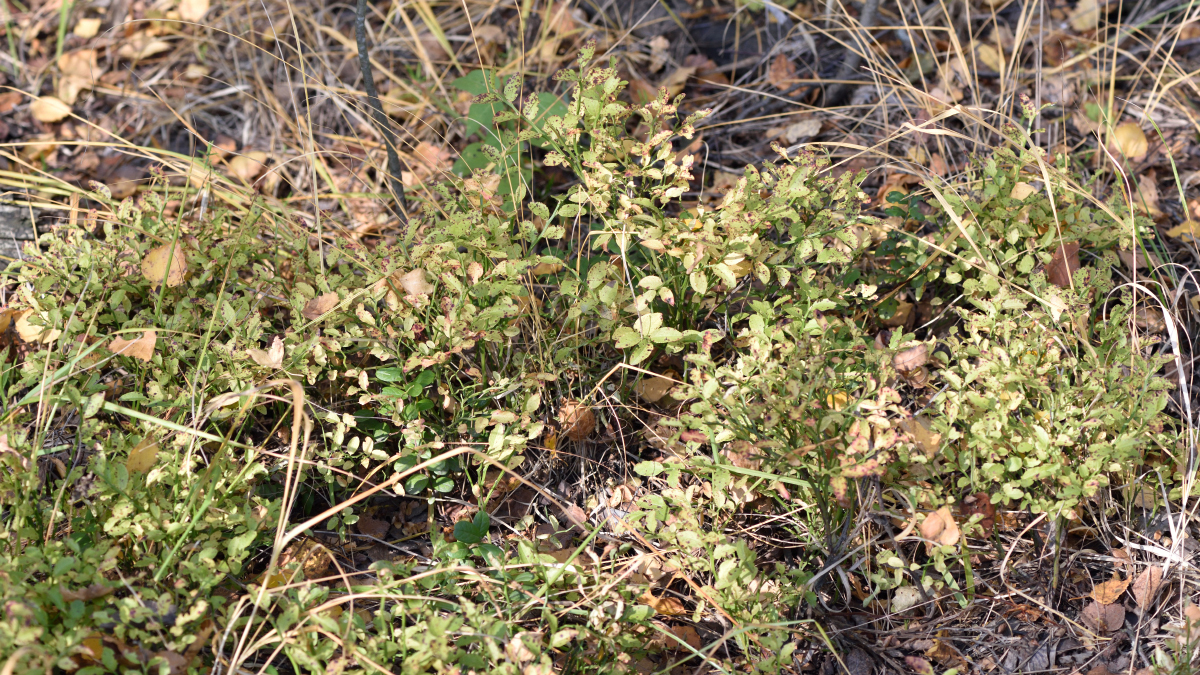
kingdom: Plantae
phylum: Tracheophyta
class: Magnoliopsida
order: Ericales
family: Ericaceae
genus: Vaccinium
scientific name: Vaccinium myrtillus
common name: Bilberry
